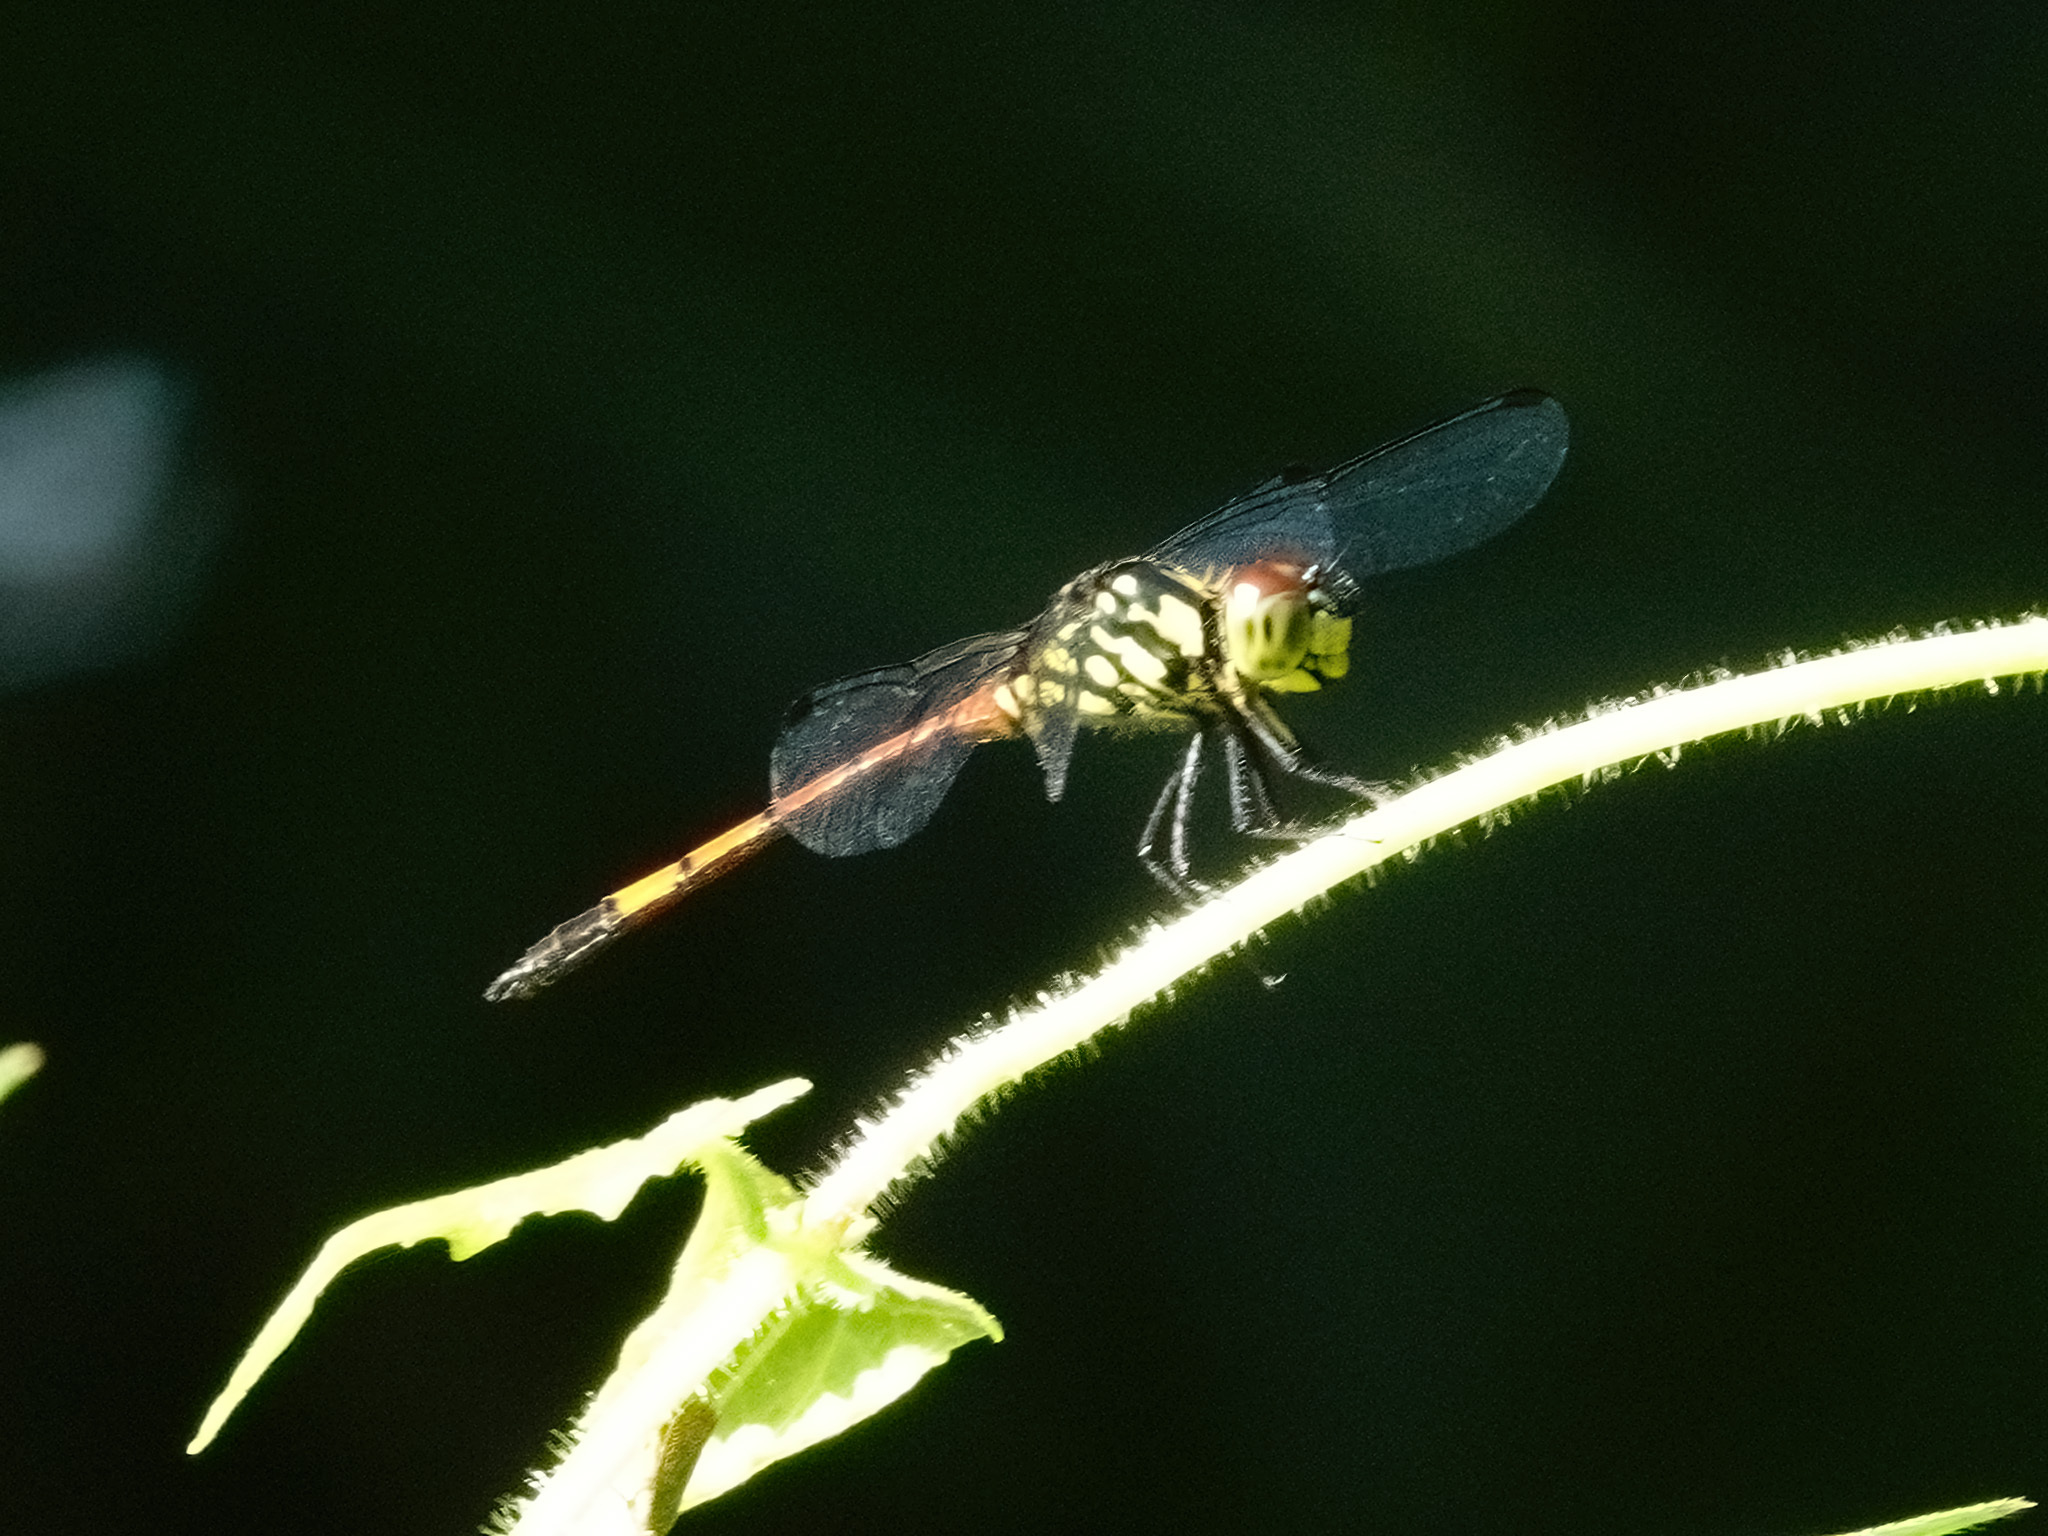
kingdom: Animalia
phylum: Arthropoda
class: Insecta
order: Odonata
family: Libellulidae
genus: Agrionoptera
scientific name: Agrionoptera insignis
